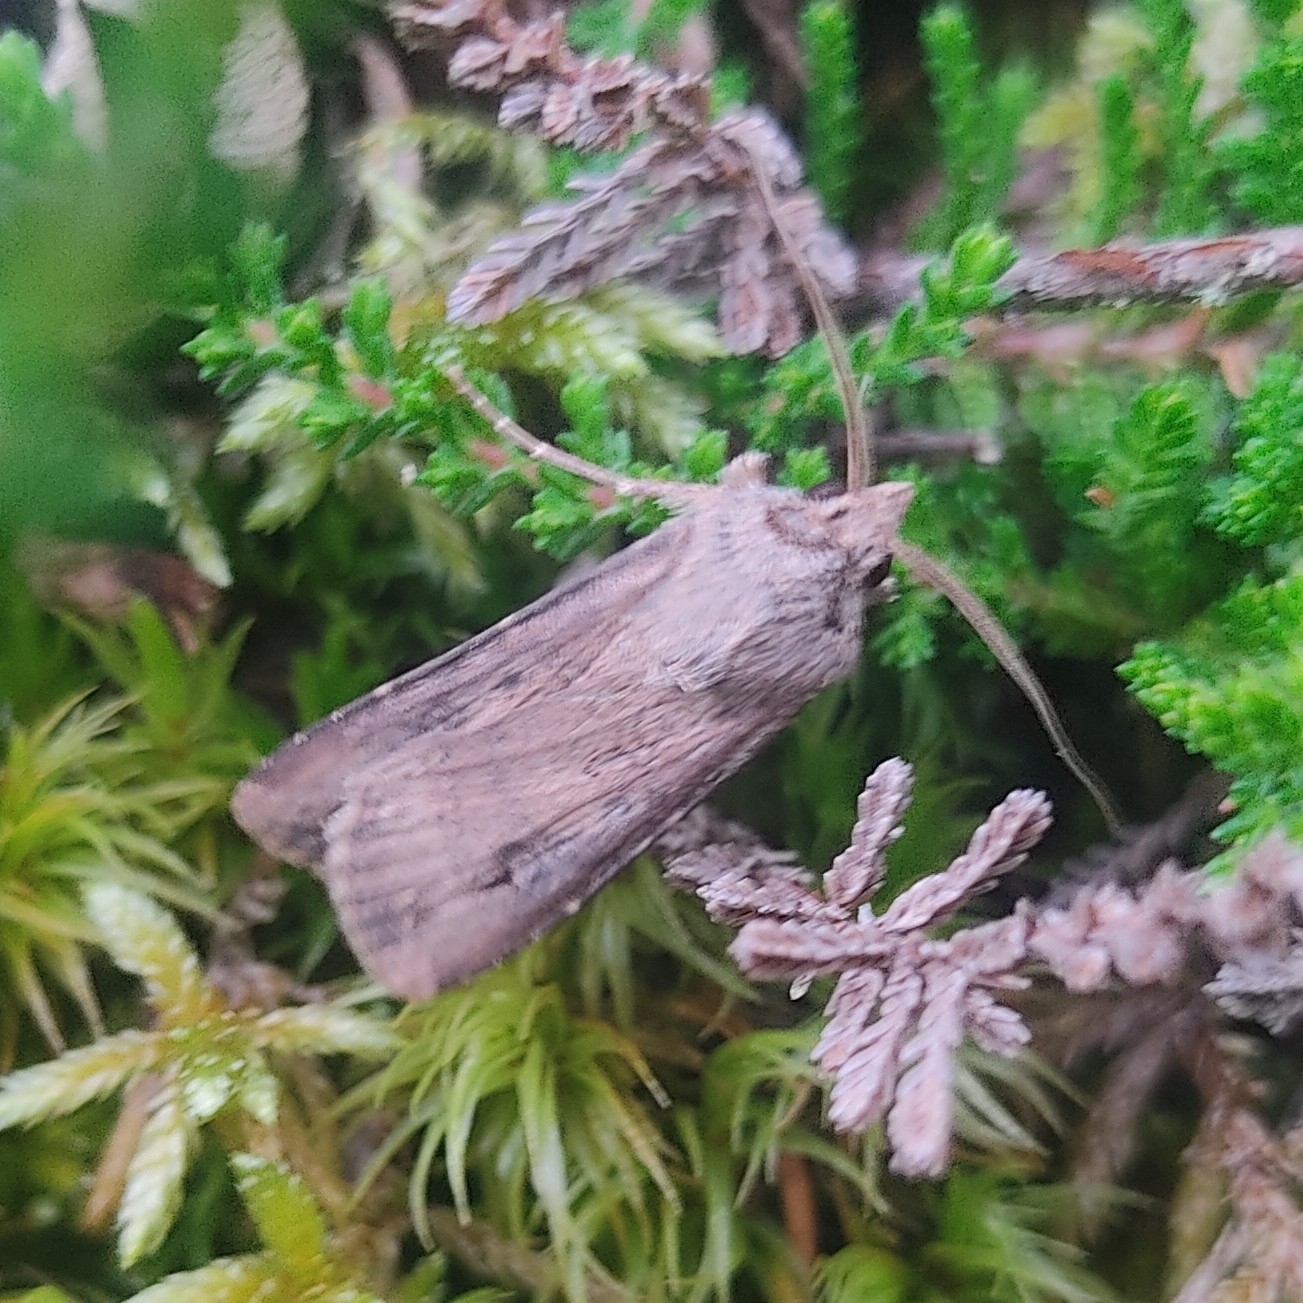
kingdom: Animalia
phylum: Arthropoda
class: Insecta
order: Lepidoptera
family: Noctuidae
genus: Agrotis
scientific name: Agrotis ipsilon
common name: Dark sword-grass
